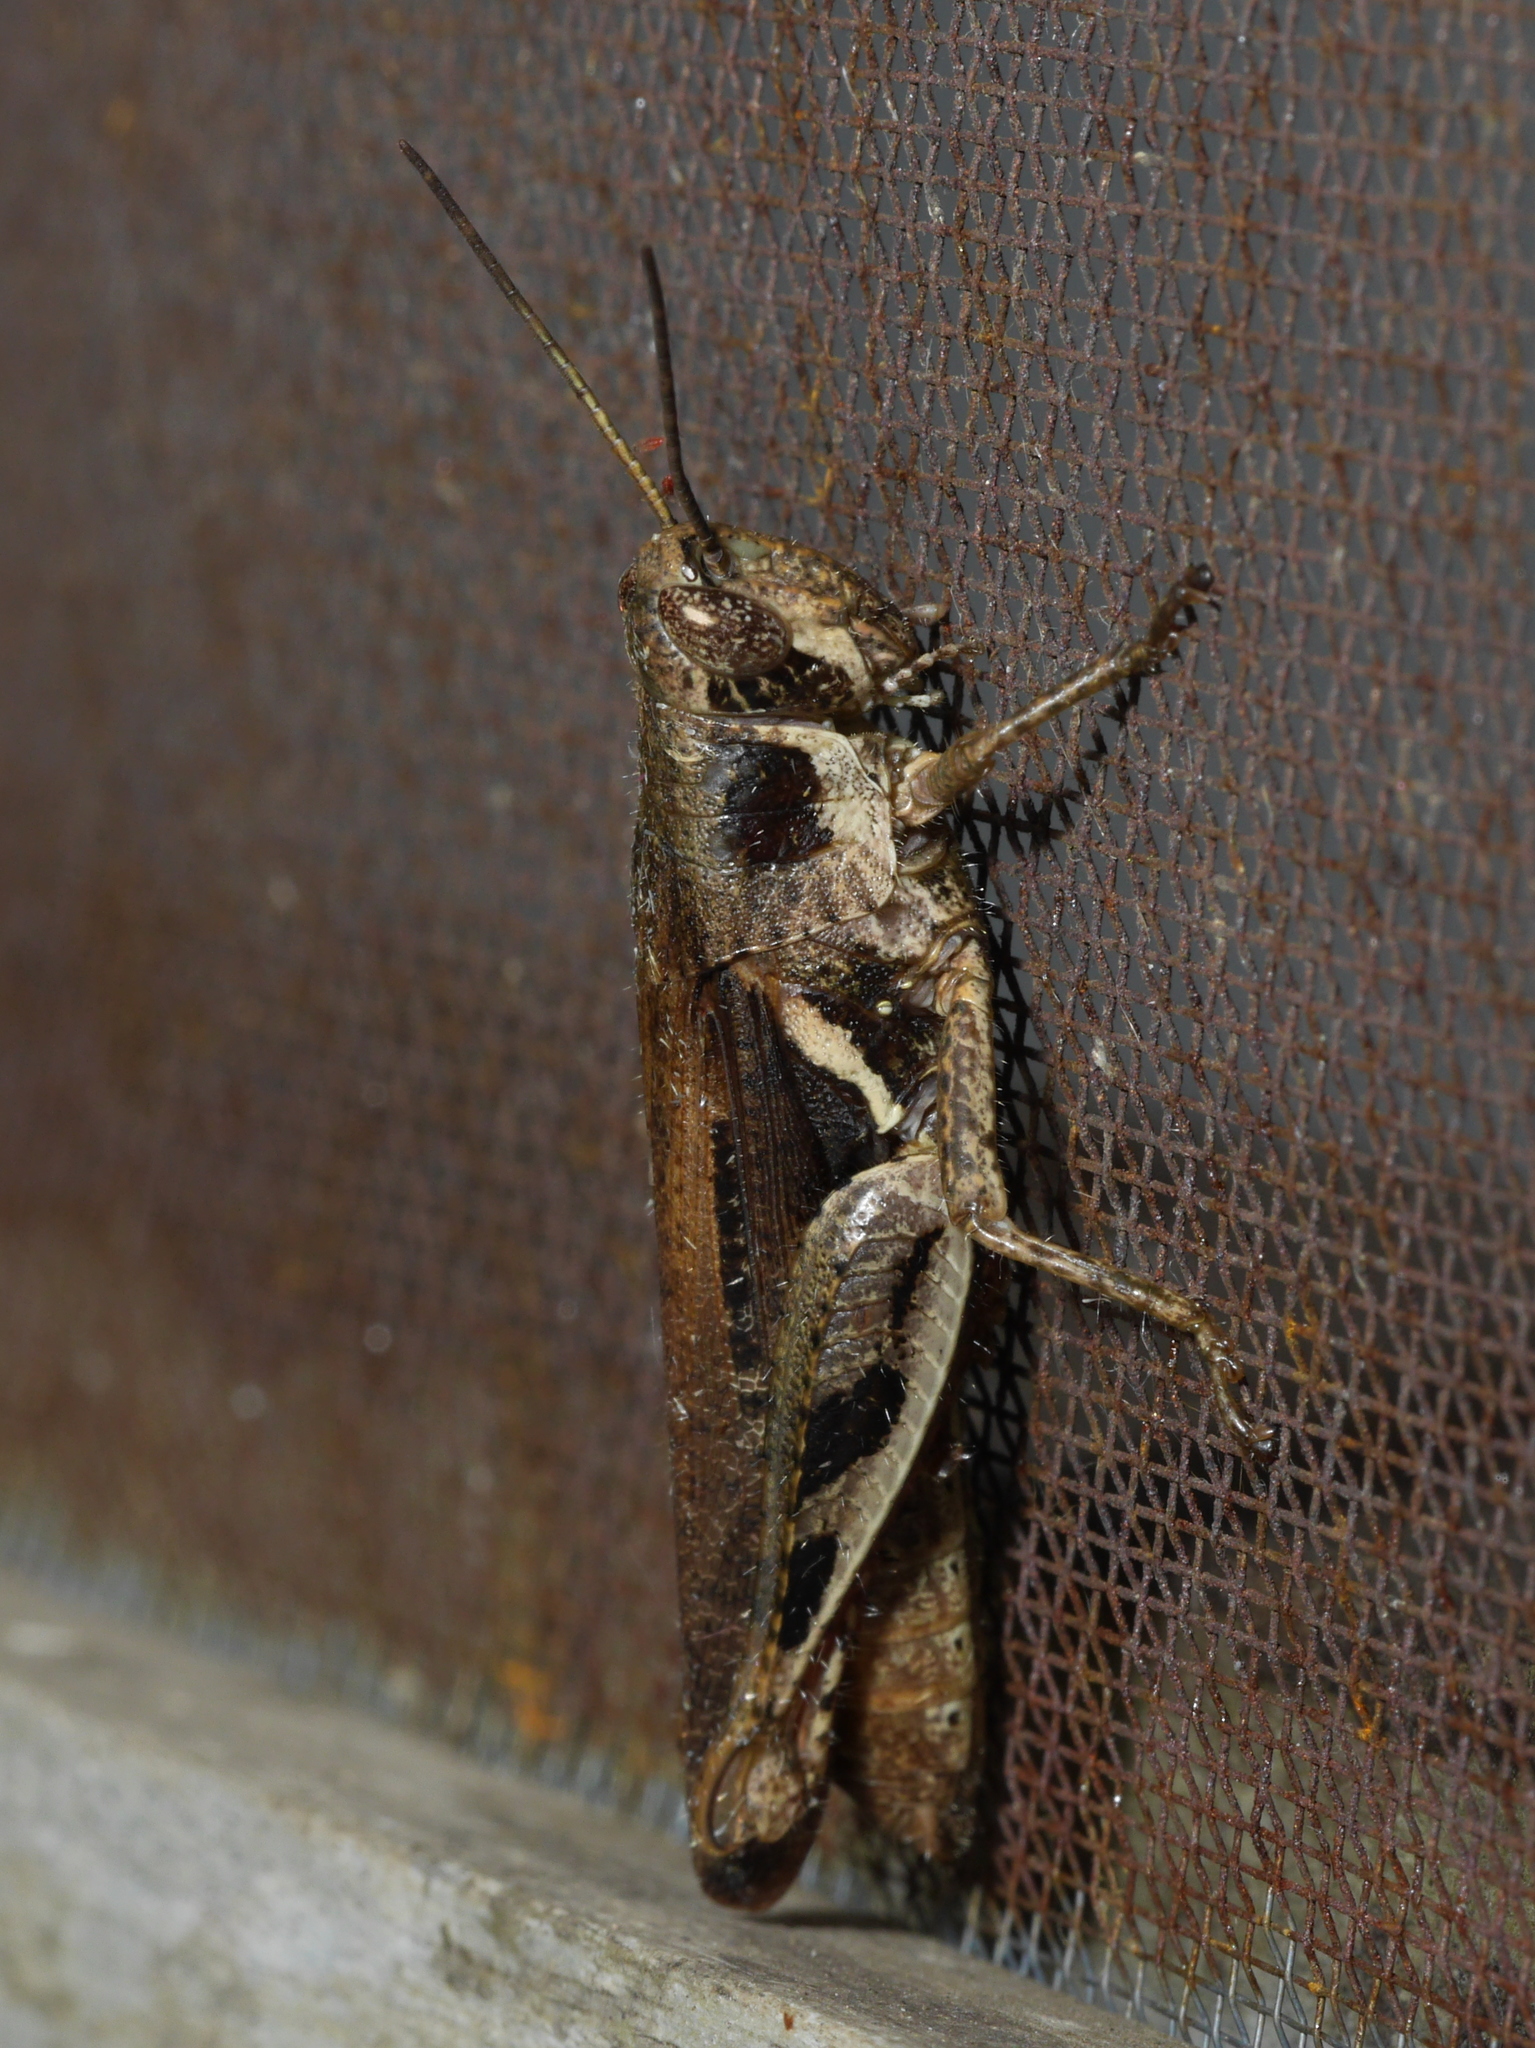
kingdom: Animalia
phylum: Arthropoda
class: Insecta
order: Orthoptera
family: Acrididae
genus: Catantops
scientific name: Catantops melanostictus
